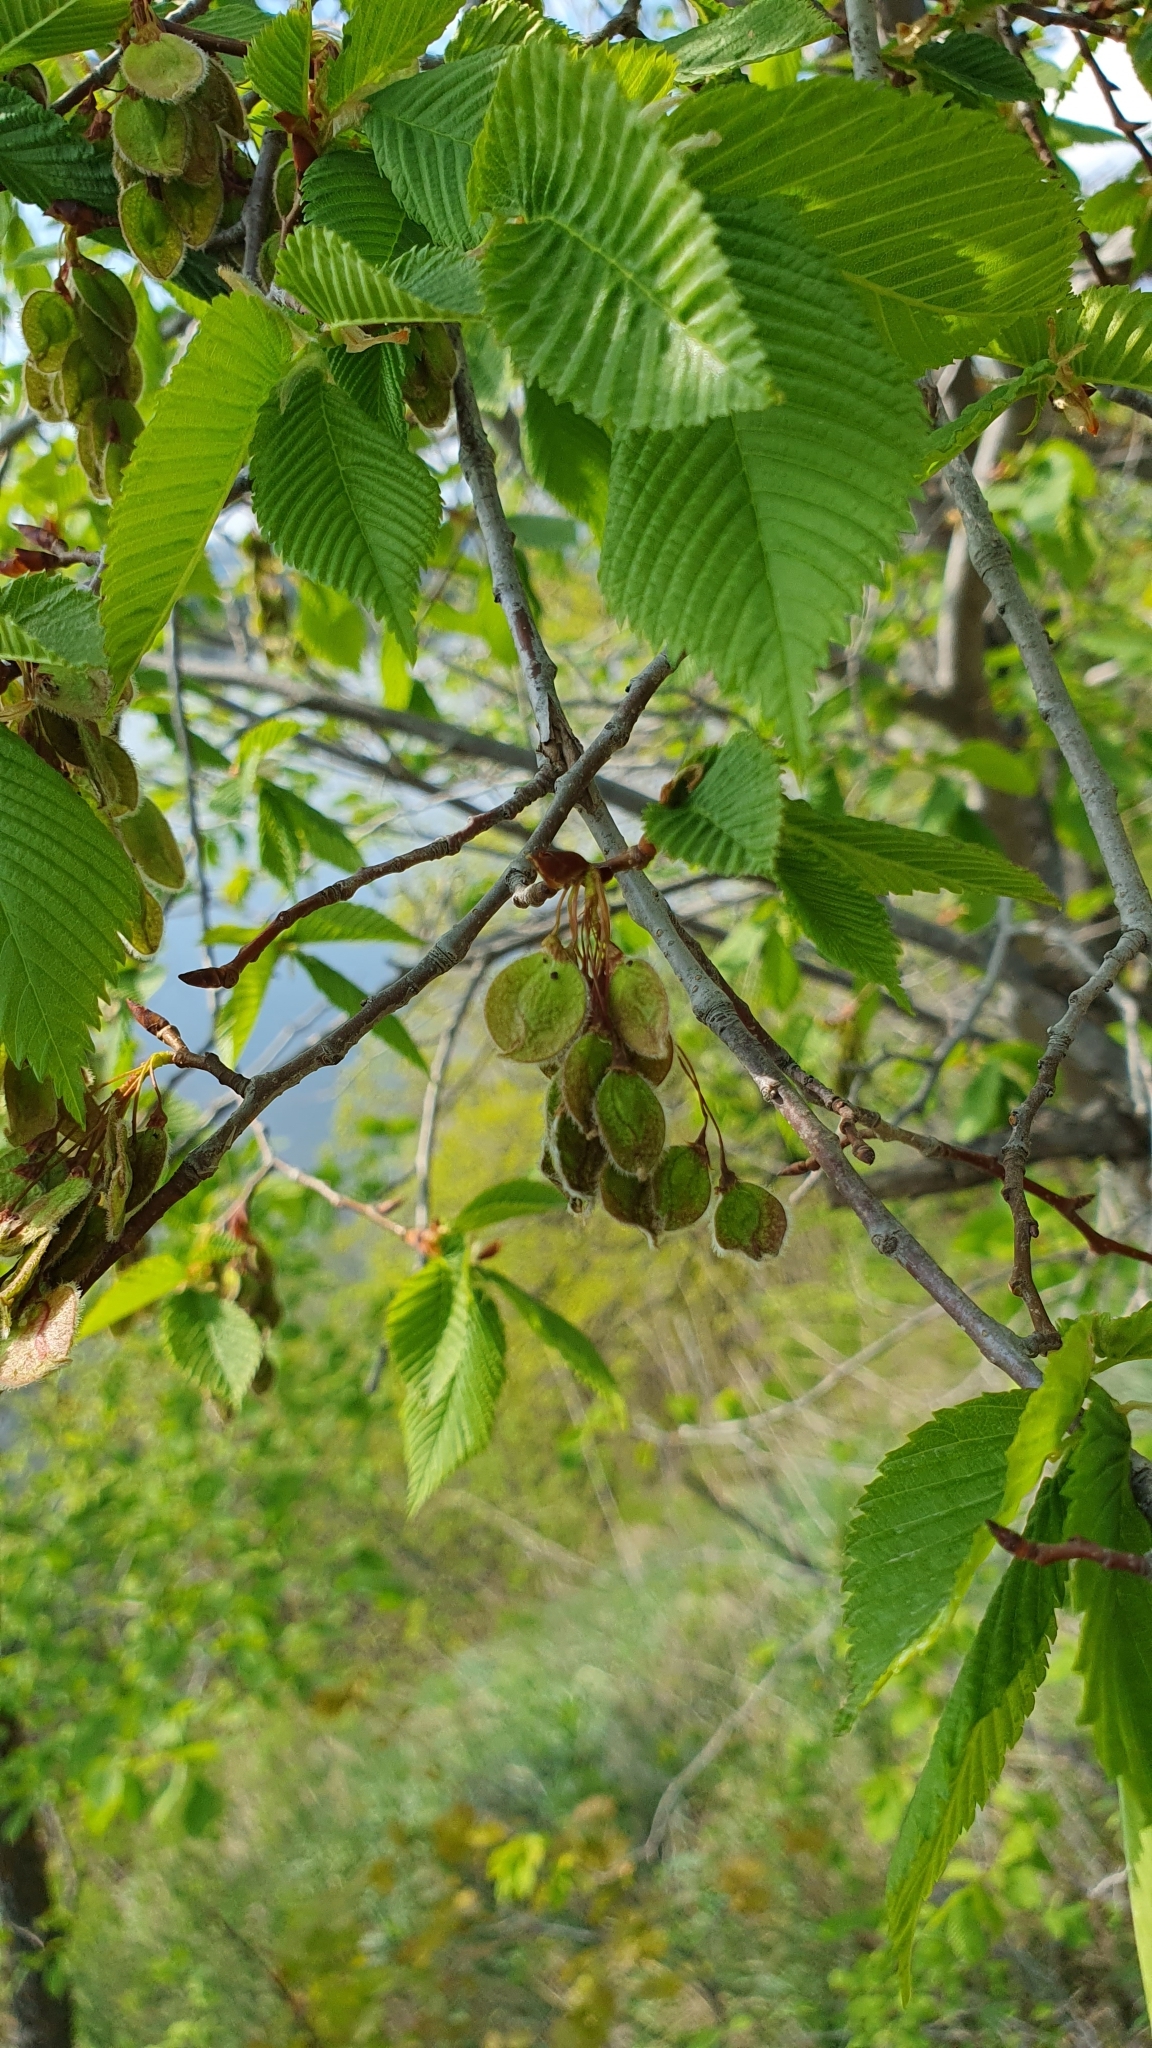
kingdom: Plantae
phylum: Tracheophyta
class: Magnoliopsida
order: Rosales
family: Ulmaceae
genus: Ulmus
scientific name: Ulmus laevis
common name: European white-elm
